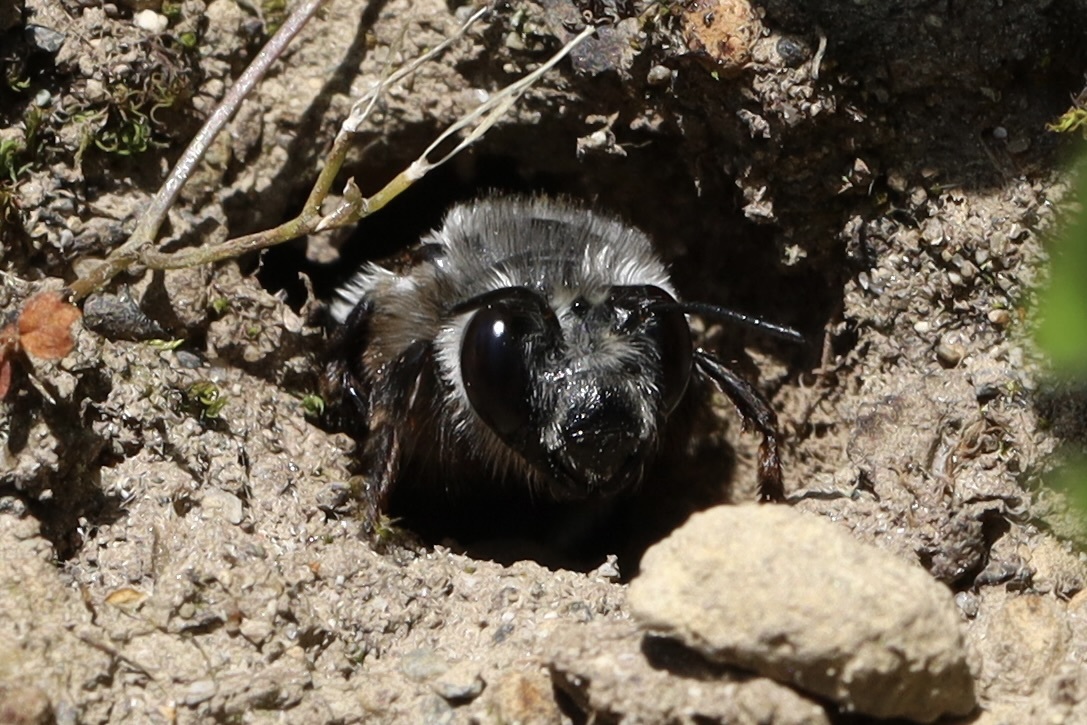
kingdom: Animalia
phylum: Arthropoda
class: Insecta
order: Hymenoptera
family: Apidae
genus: Anthophora
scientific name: Anthophora pacifica
